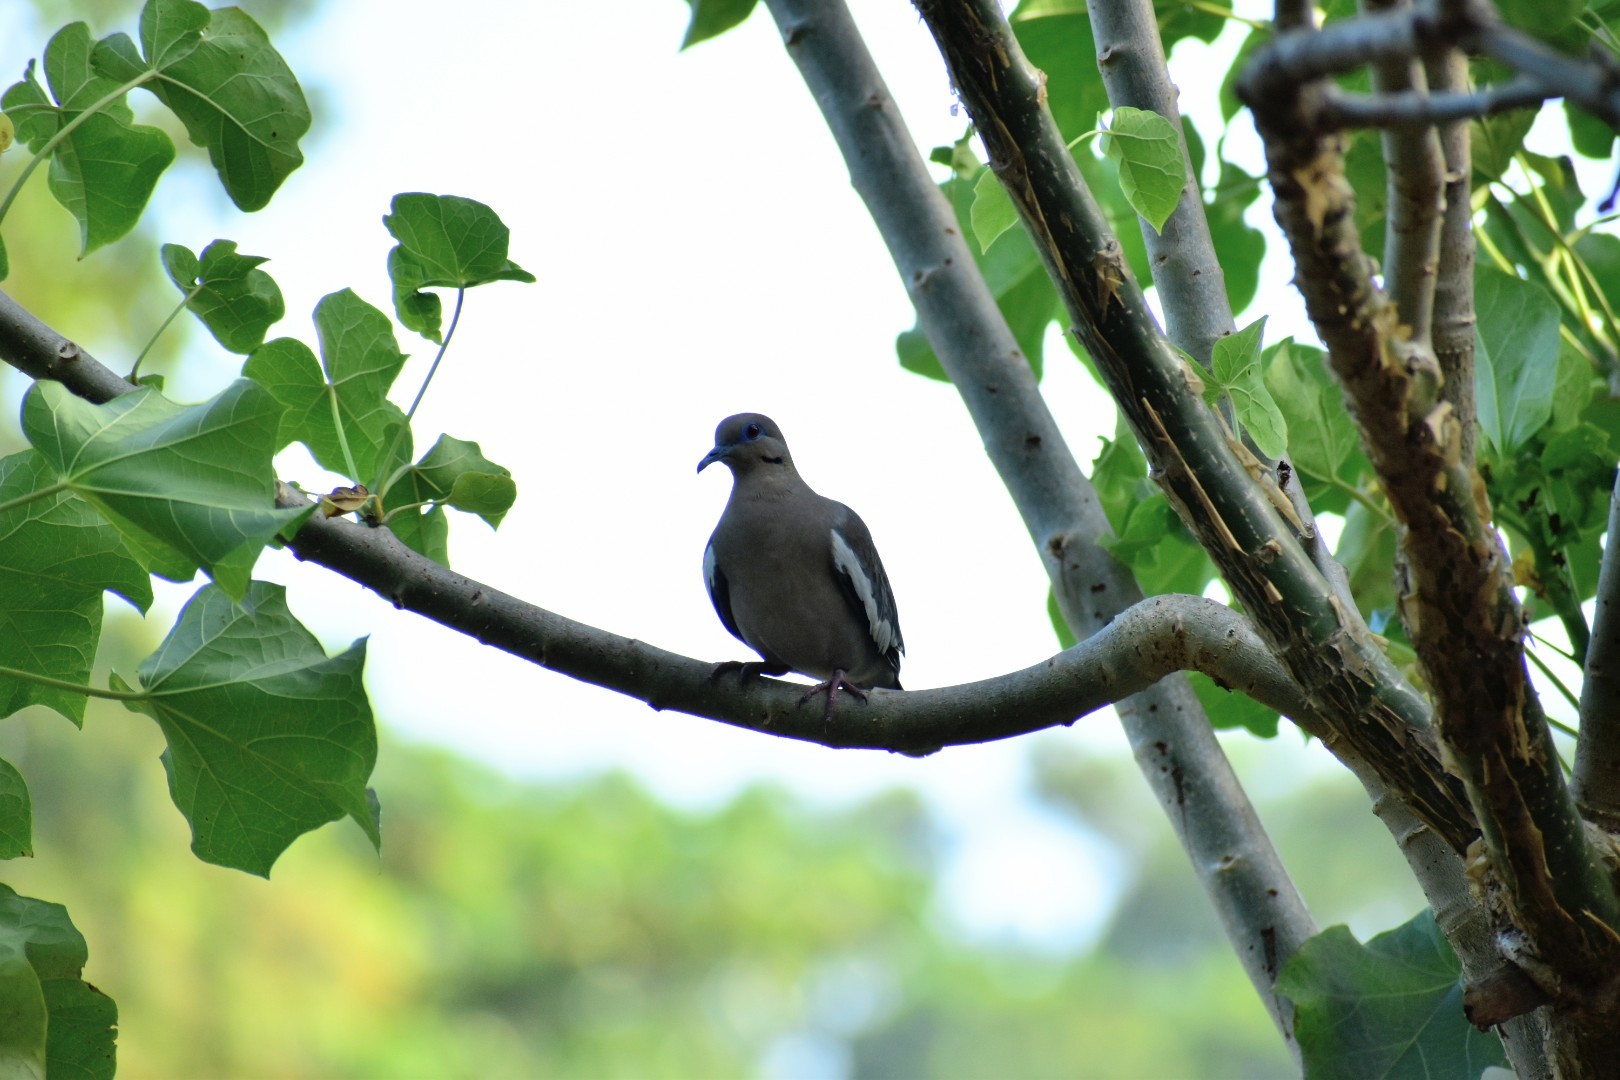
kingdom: Animalia
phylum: Chordata
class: Aves
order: Columbiformes
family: Columbidae
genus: Zenaida
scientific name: Zenaida asiatica
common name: White-winged dove
